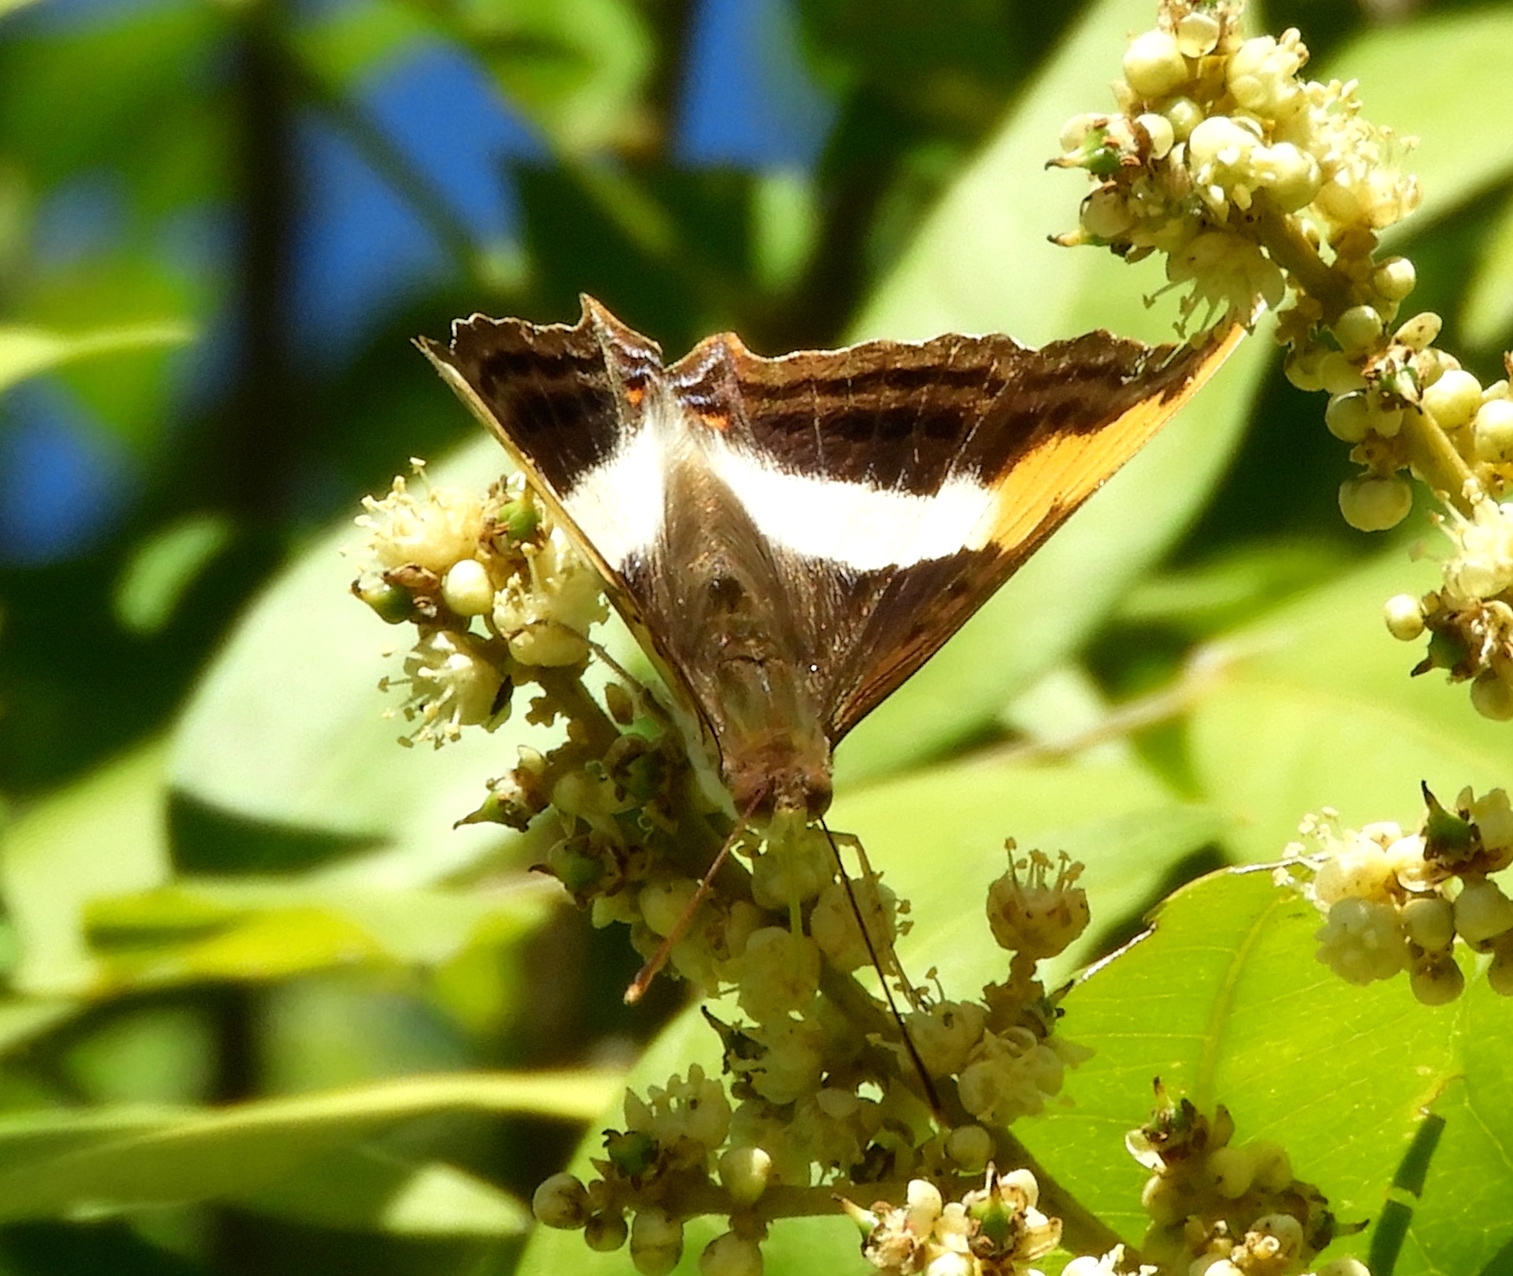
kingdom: Animalia
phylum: Arthropoda
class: Insecta
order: Lepidoptera
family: Nymphalidae
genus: Doxocopa
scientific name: Doxocopa laure
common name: Silver emperor
